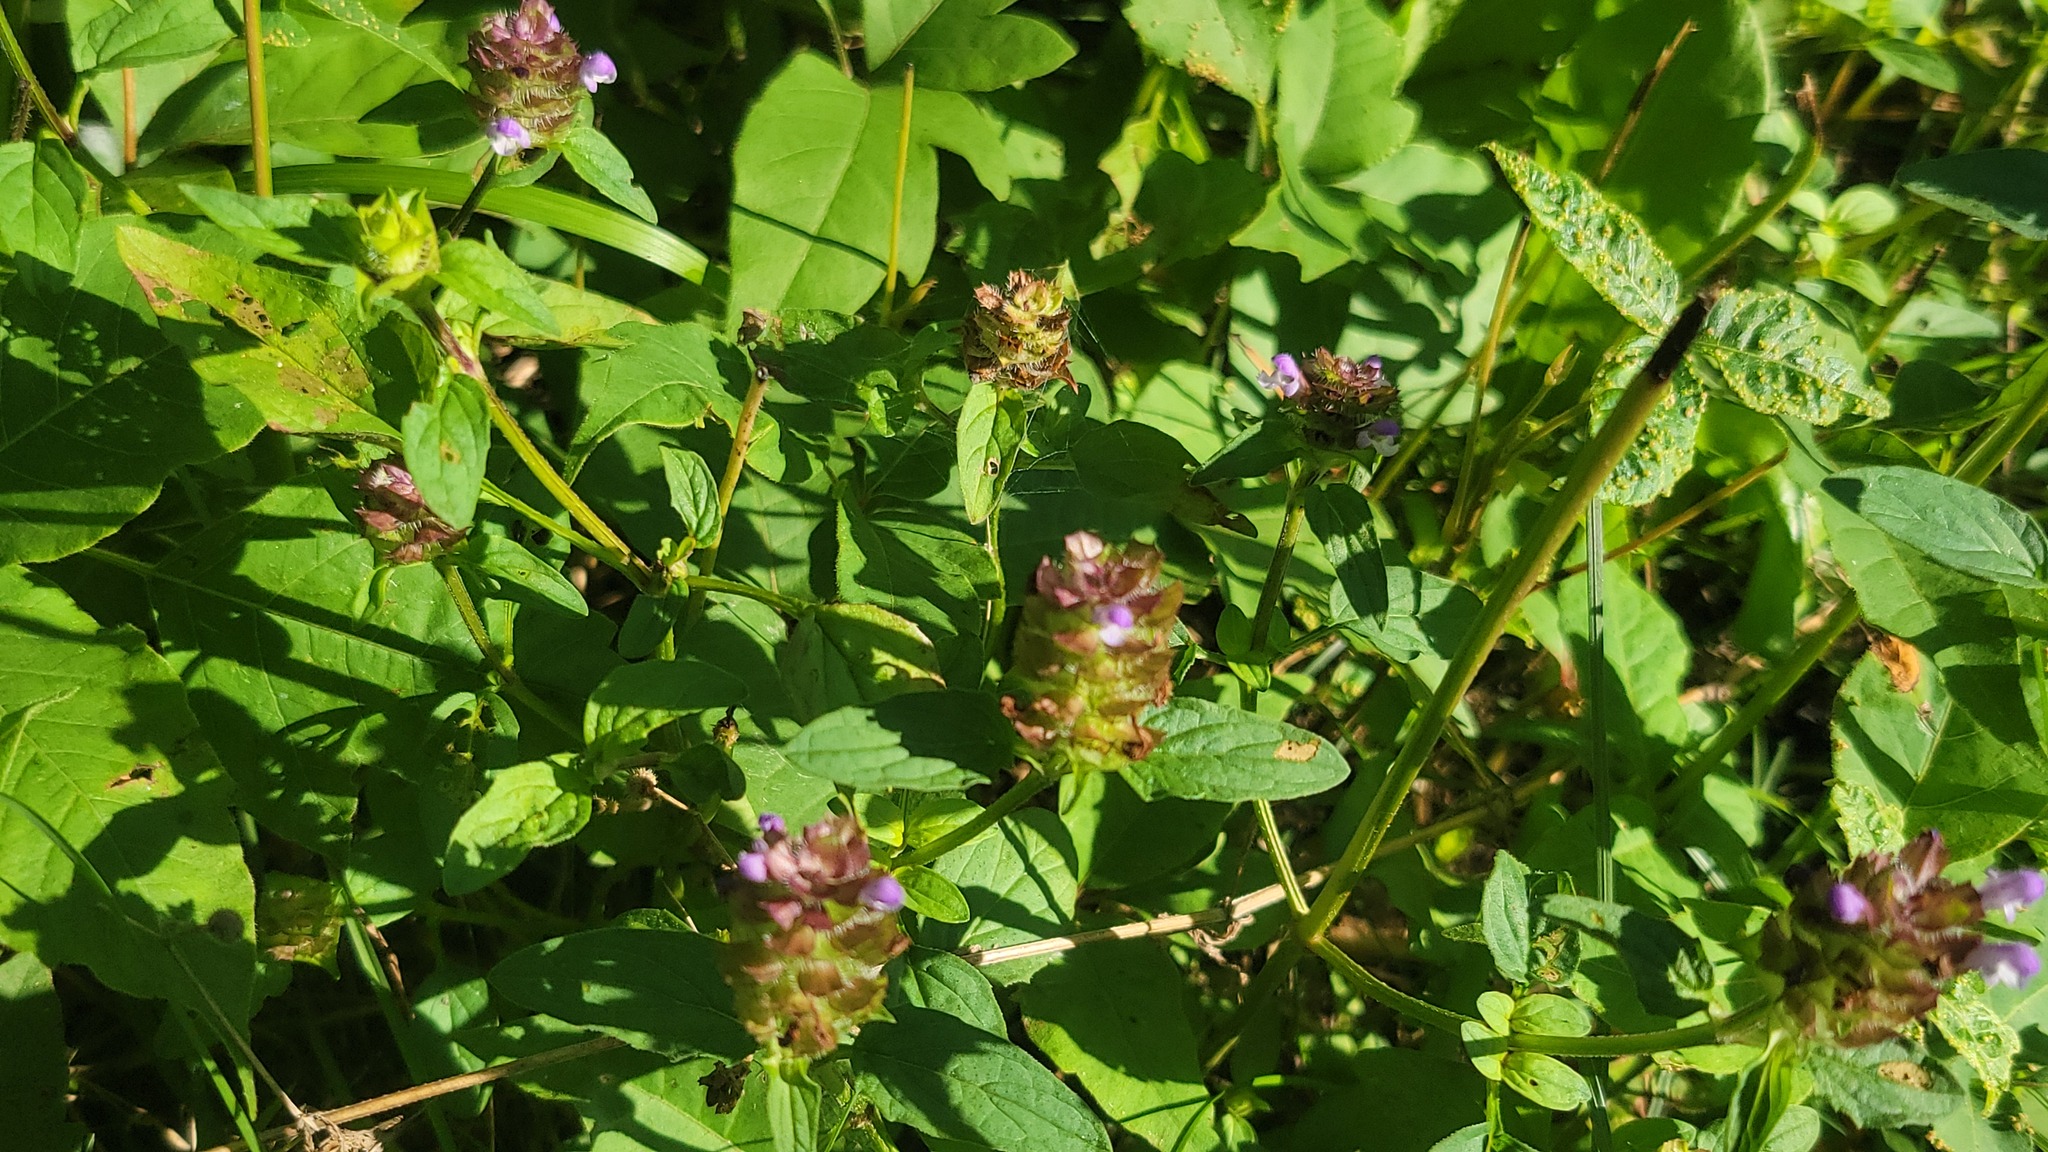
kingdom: Plantae
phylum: Tracheophyta
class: Magnoliopsida
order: Lamiales
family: Lamiaceae
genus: Prunella
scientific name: Prunella vulgaris
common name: Heal-all
